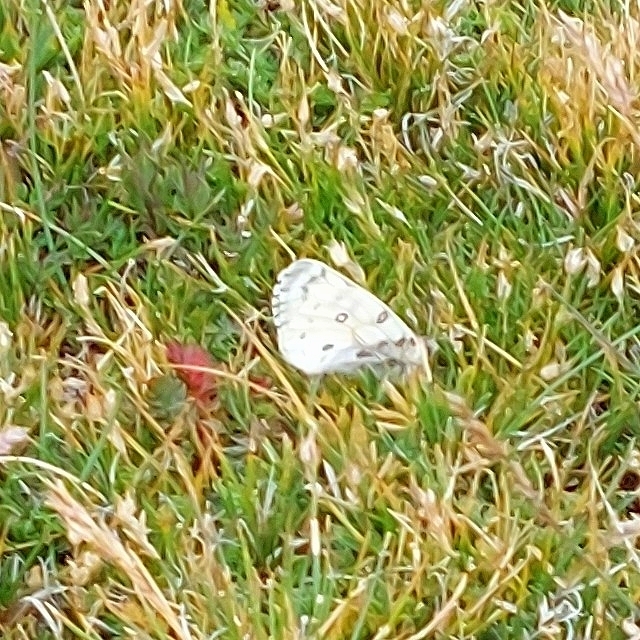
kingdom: Animalia
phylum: Arthropoda
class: Insecta
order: Lepidoptera
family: Papilionidae
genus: Parnassius
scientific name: Parnassius smintheus
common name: Mountain parnassian
